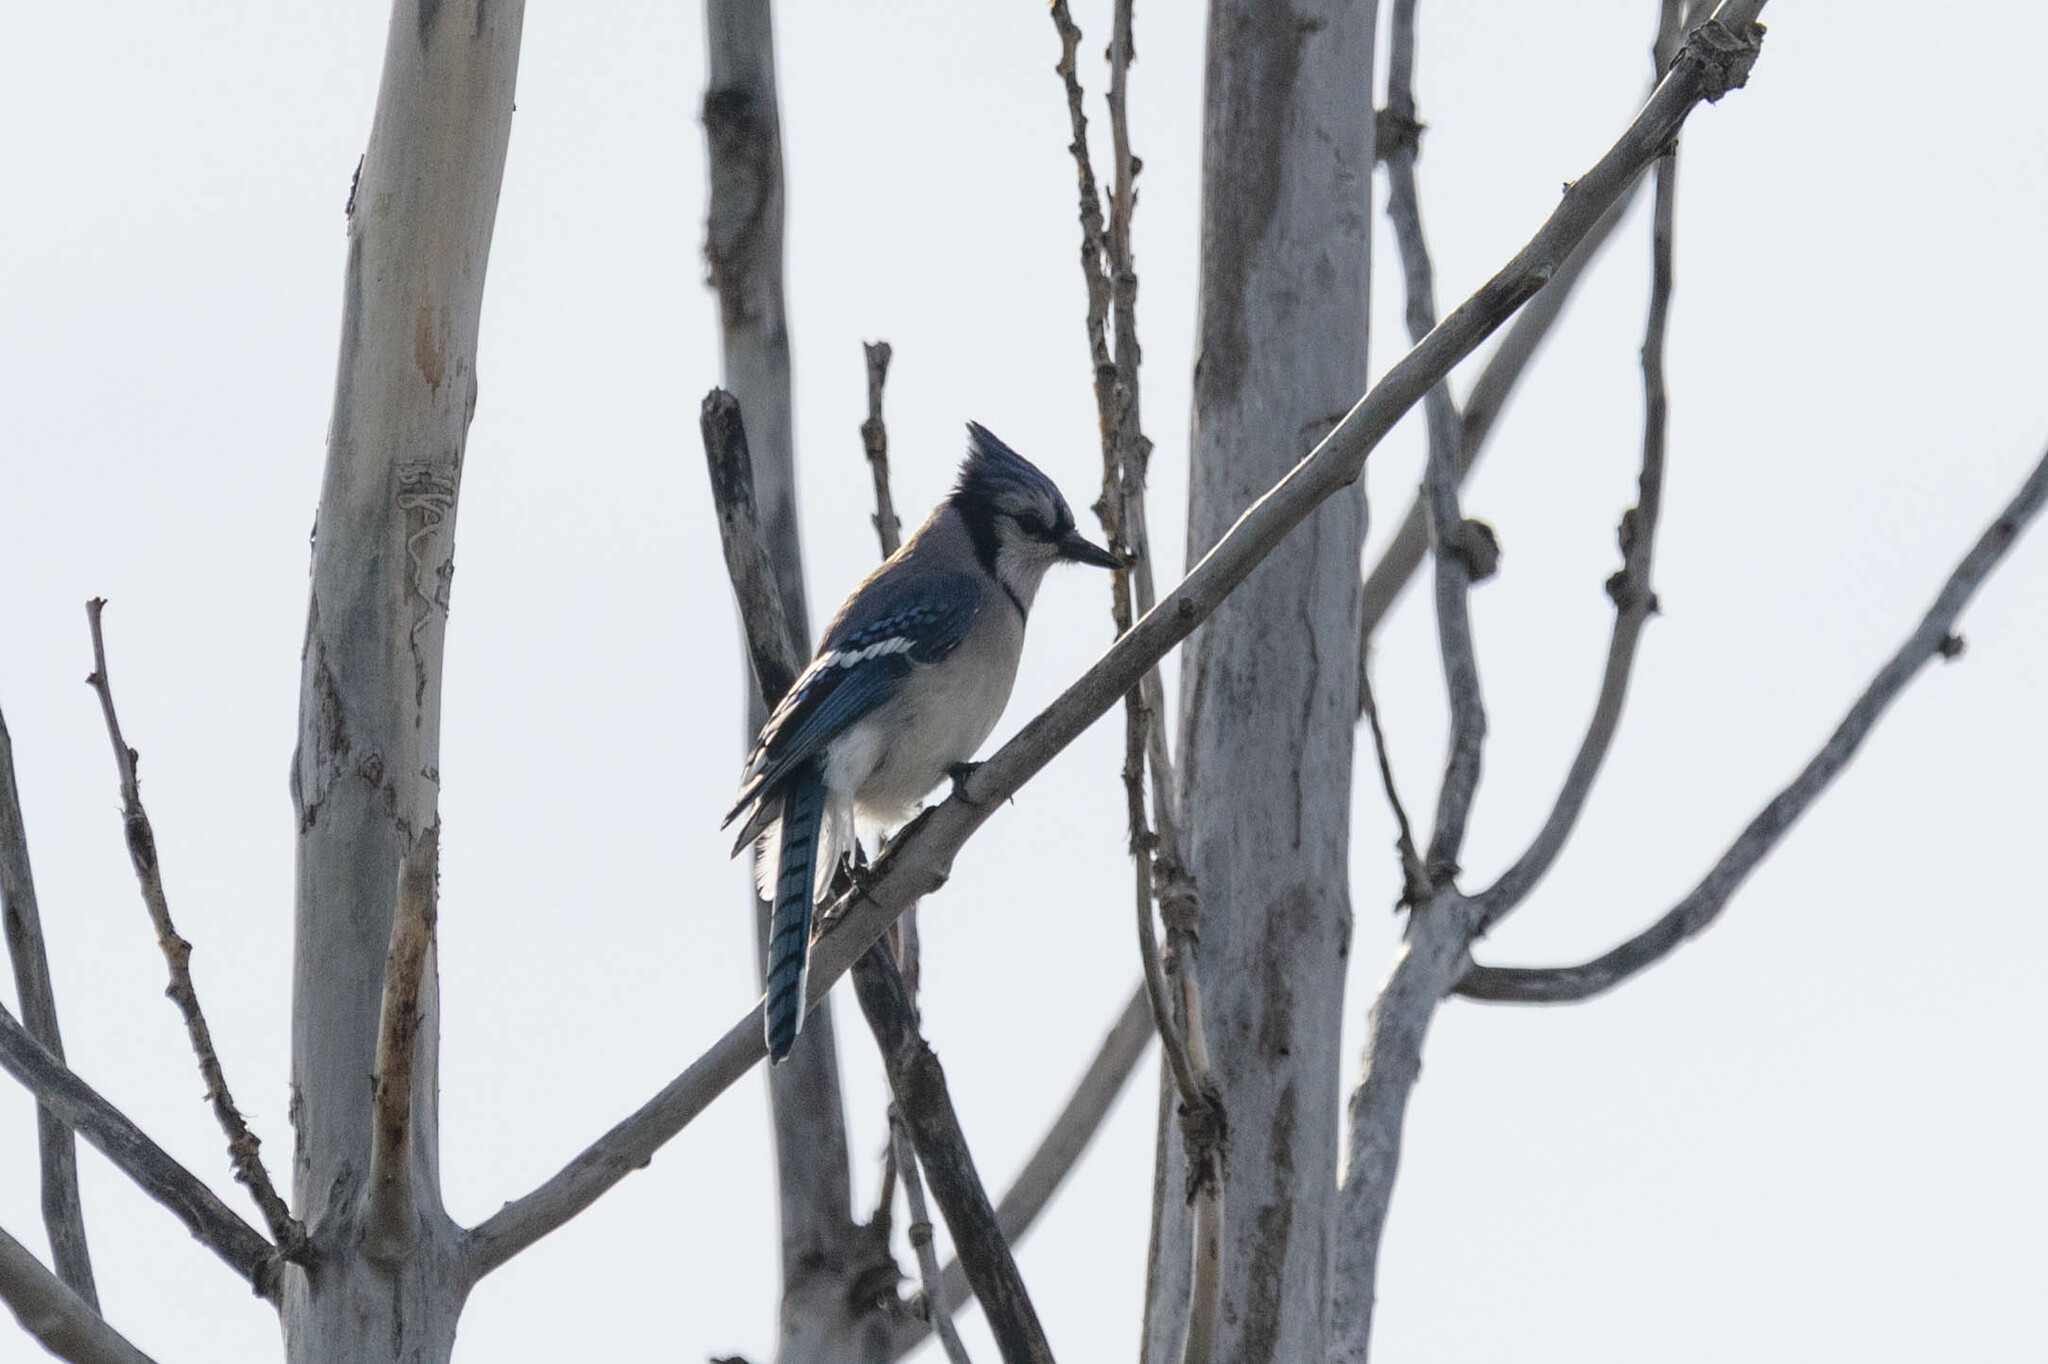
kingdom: Animalia
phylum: Chordata
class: Aves
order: Passeriformes
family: Corvidae
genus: Cyanocitta
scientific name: Cyanocitta cristata
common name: Blue jay
